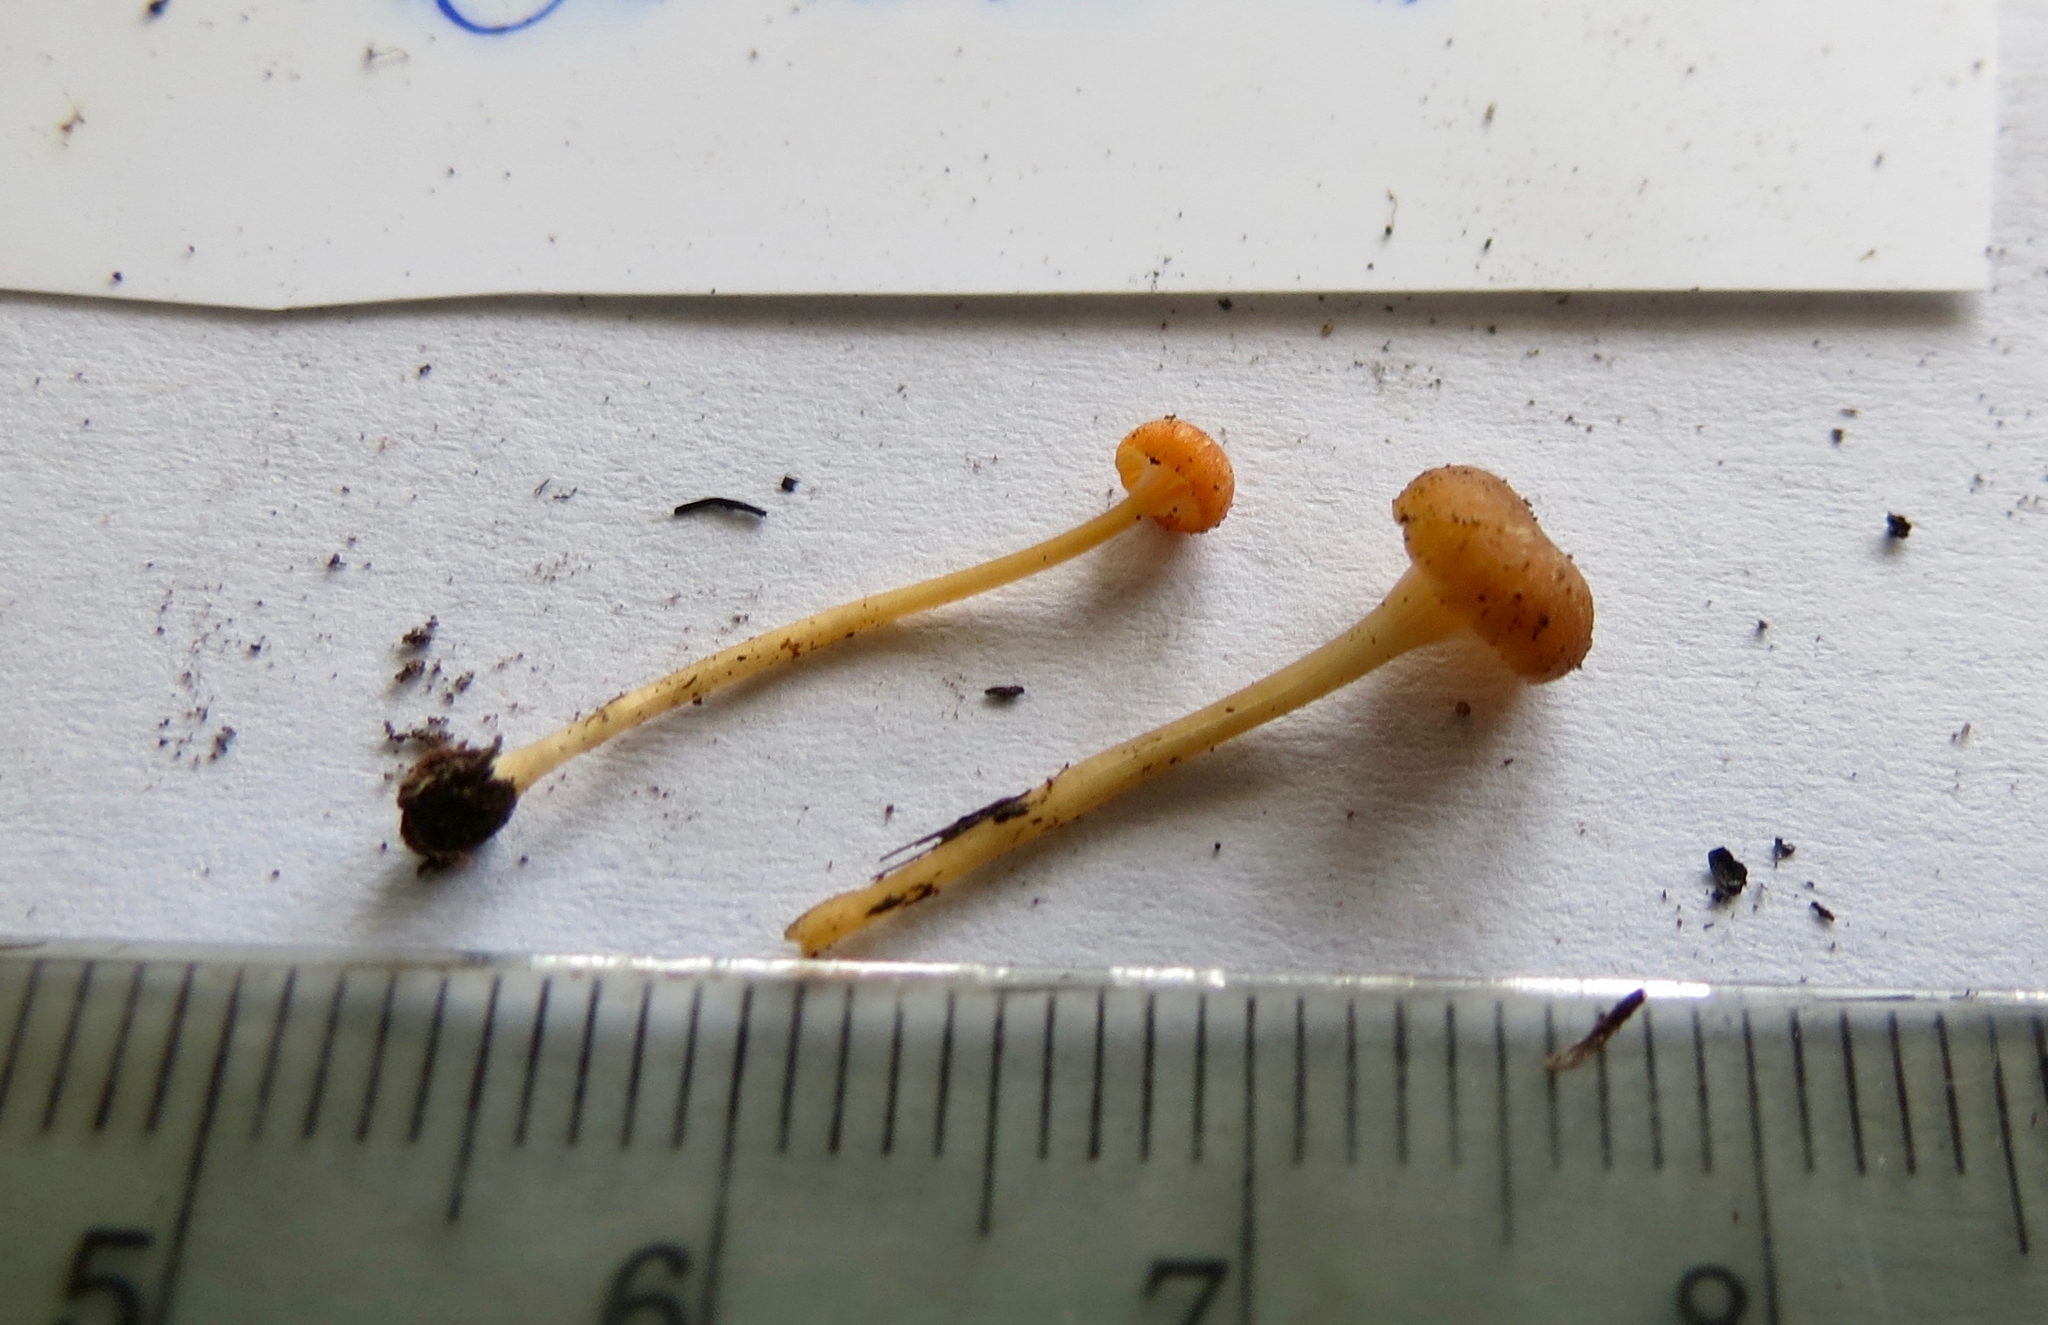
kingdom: Fungi
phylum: Basidiomycota
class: Agaricomycetes
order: Hymenochaetales
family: Rickenellaceae
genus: Rickenella
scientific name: Rickenella fibula
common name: Orange mosscap
